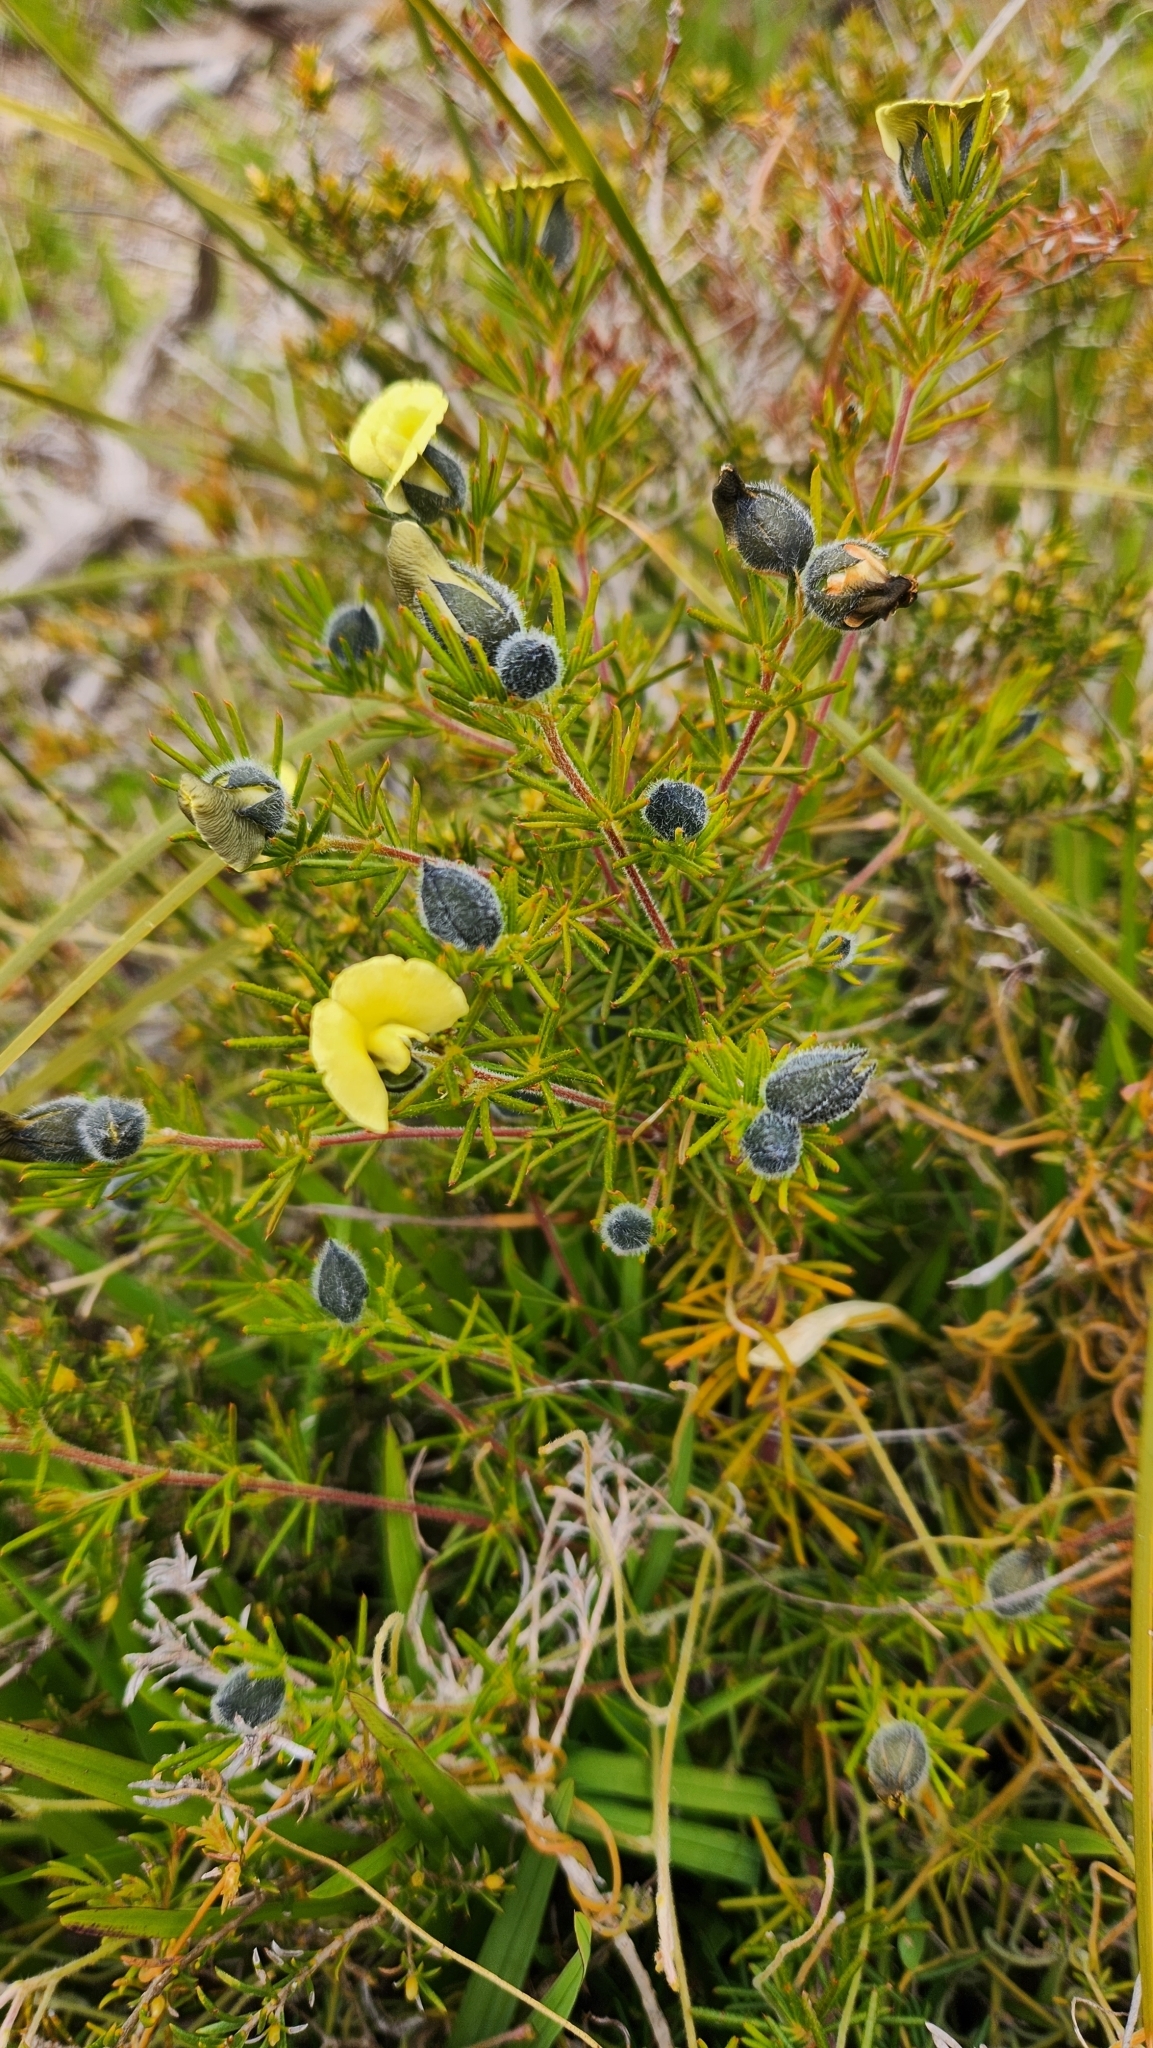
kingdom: Plantae
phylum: Tracheophyta
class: Magnoliopsida
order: Fabales
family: Fabaceae
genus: Gompholobium
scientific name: Gompholobium tomentosum
